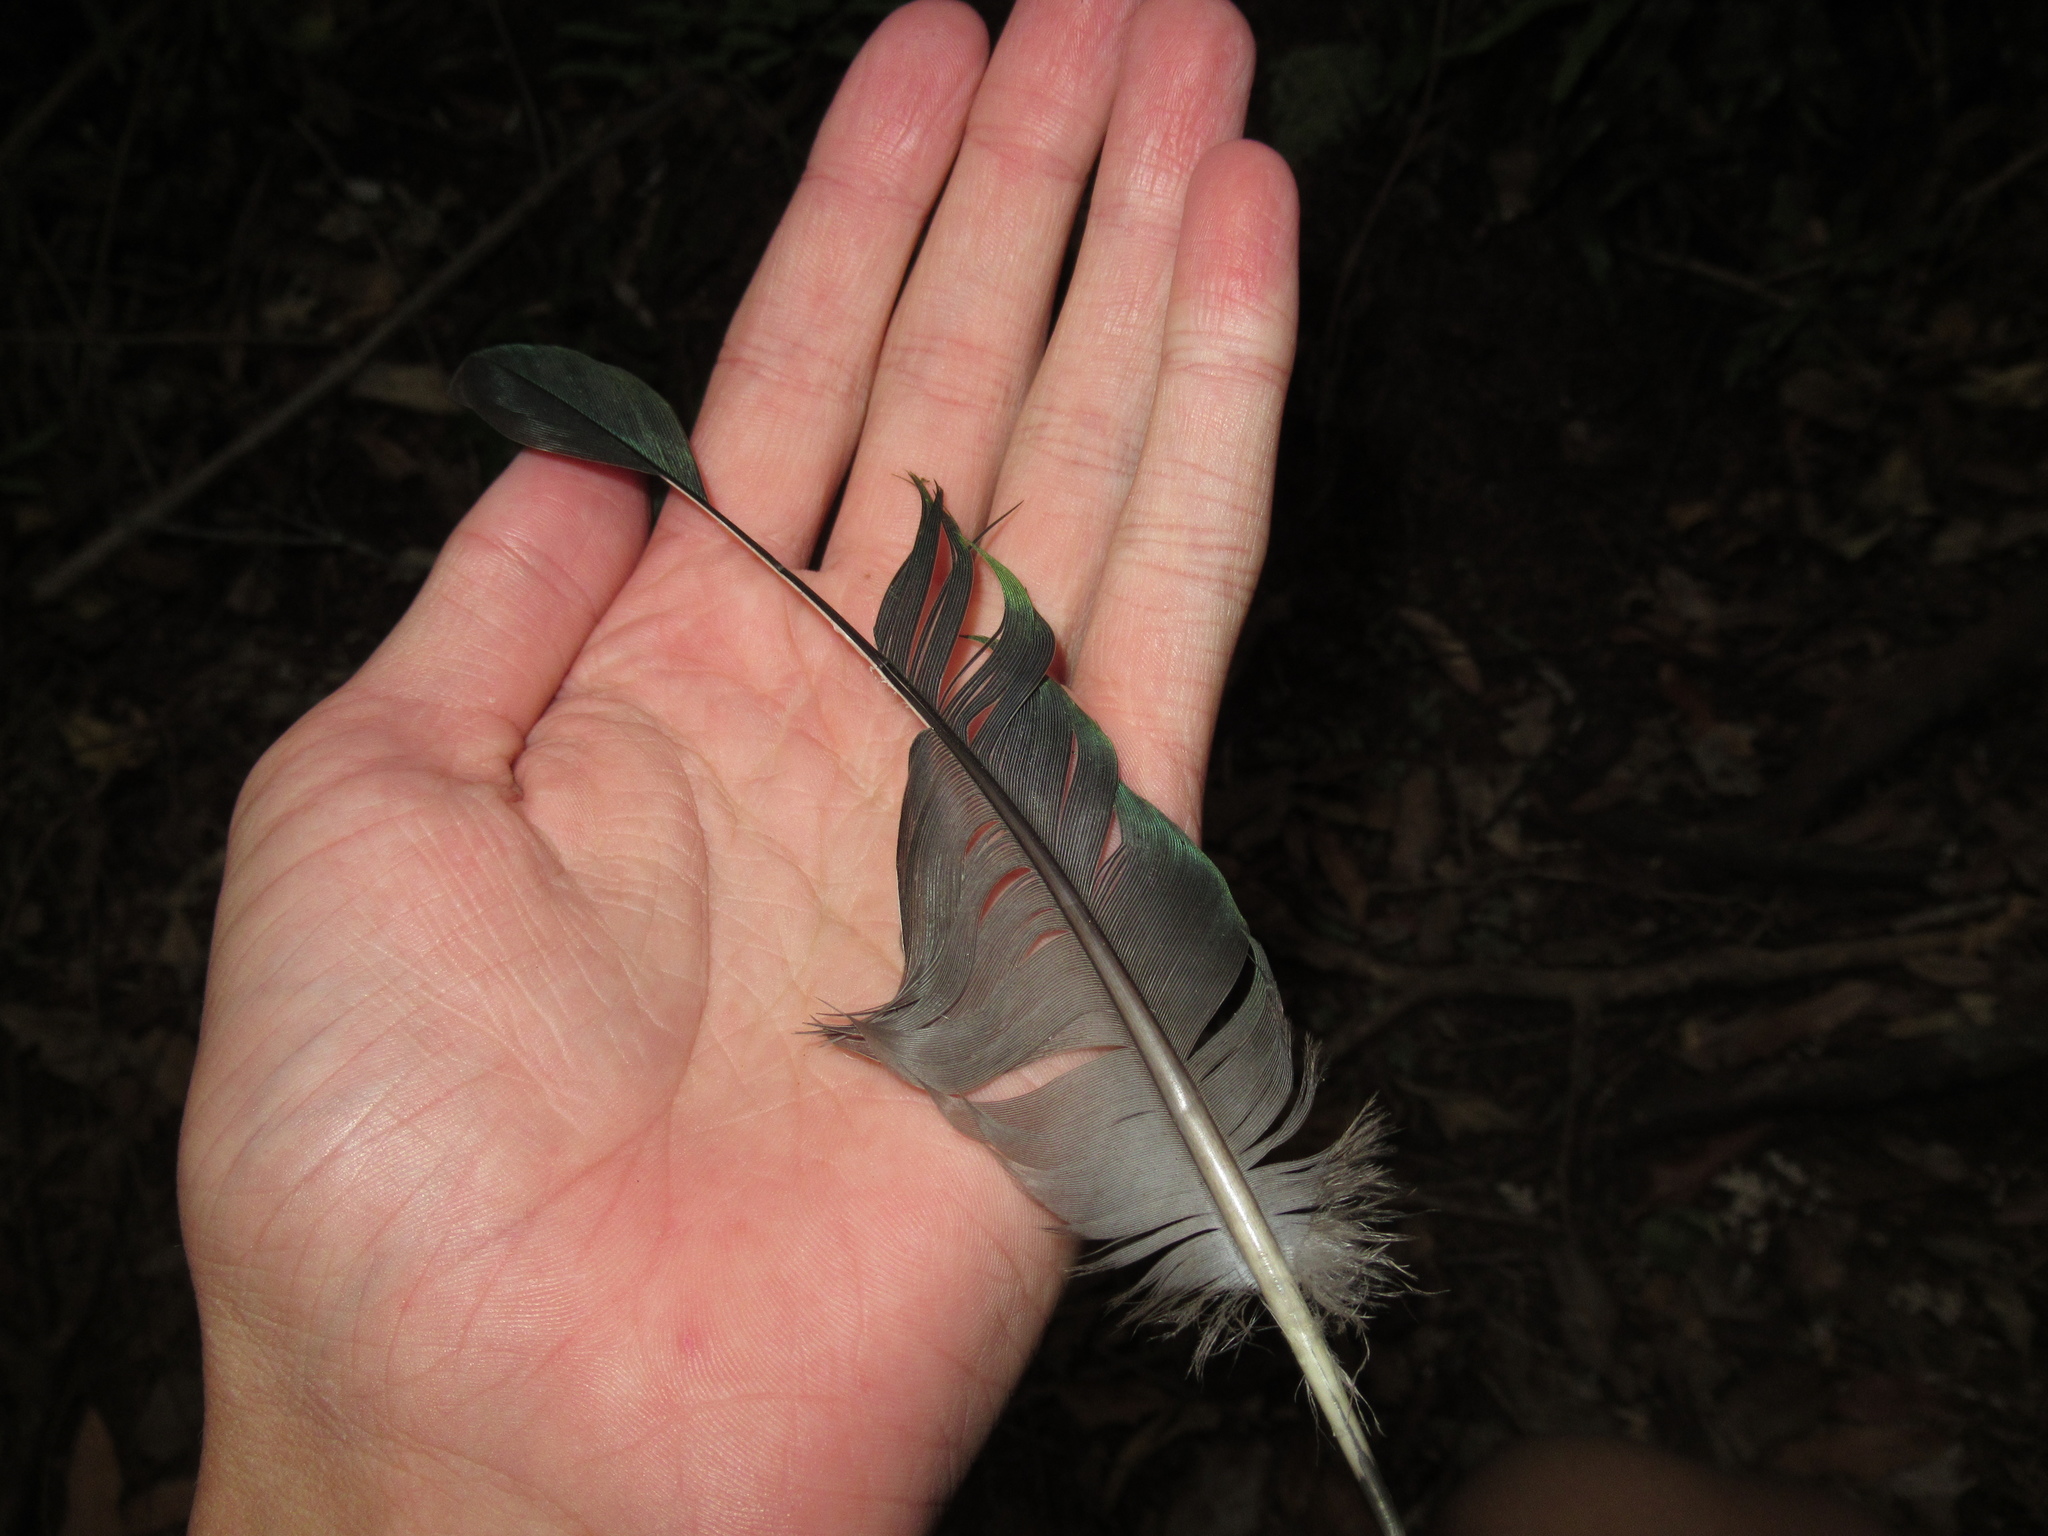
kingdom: Animalia
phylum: Chordata
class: Aves
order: Columbiformes
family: Columbidae
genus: Hemiphaga
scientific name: Hemiphaga novaeseelandiae
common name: New zealand pigeon
